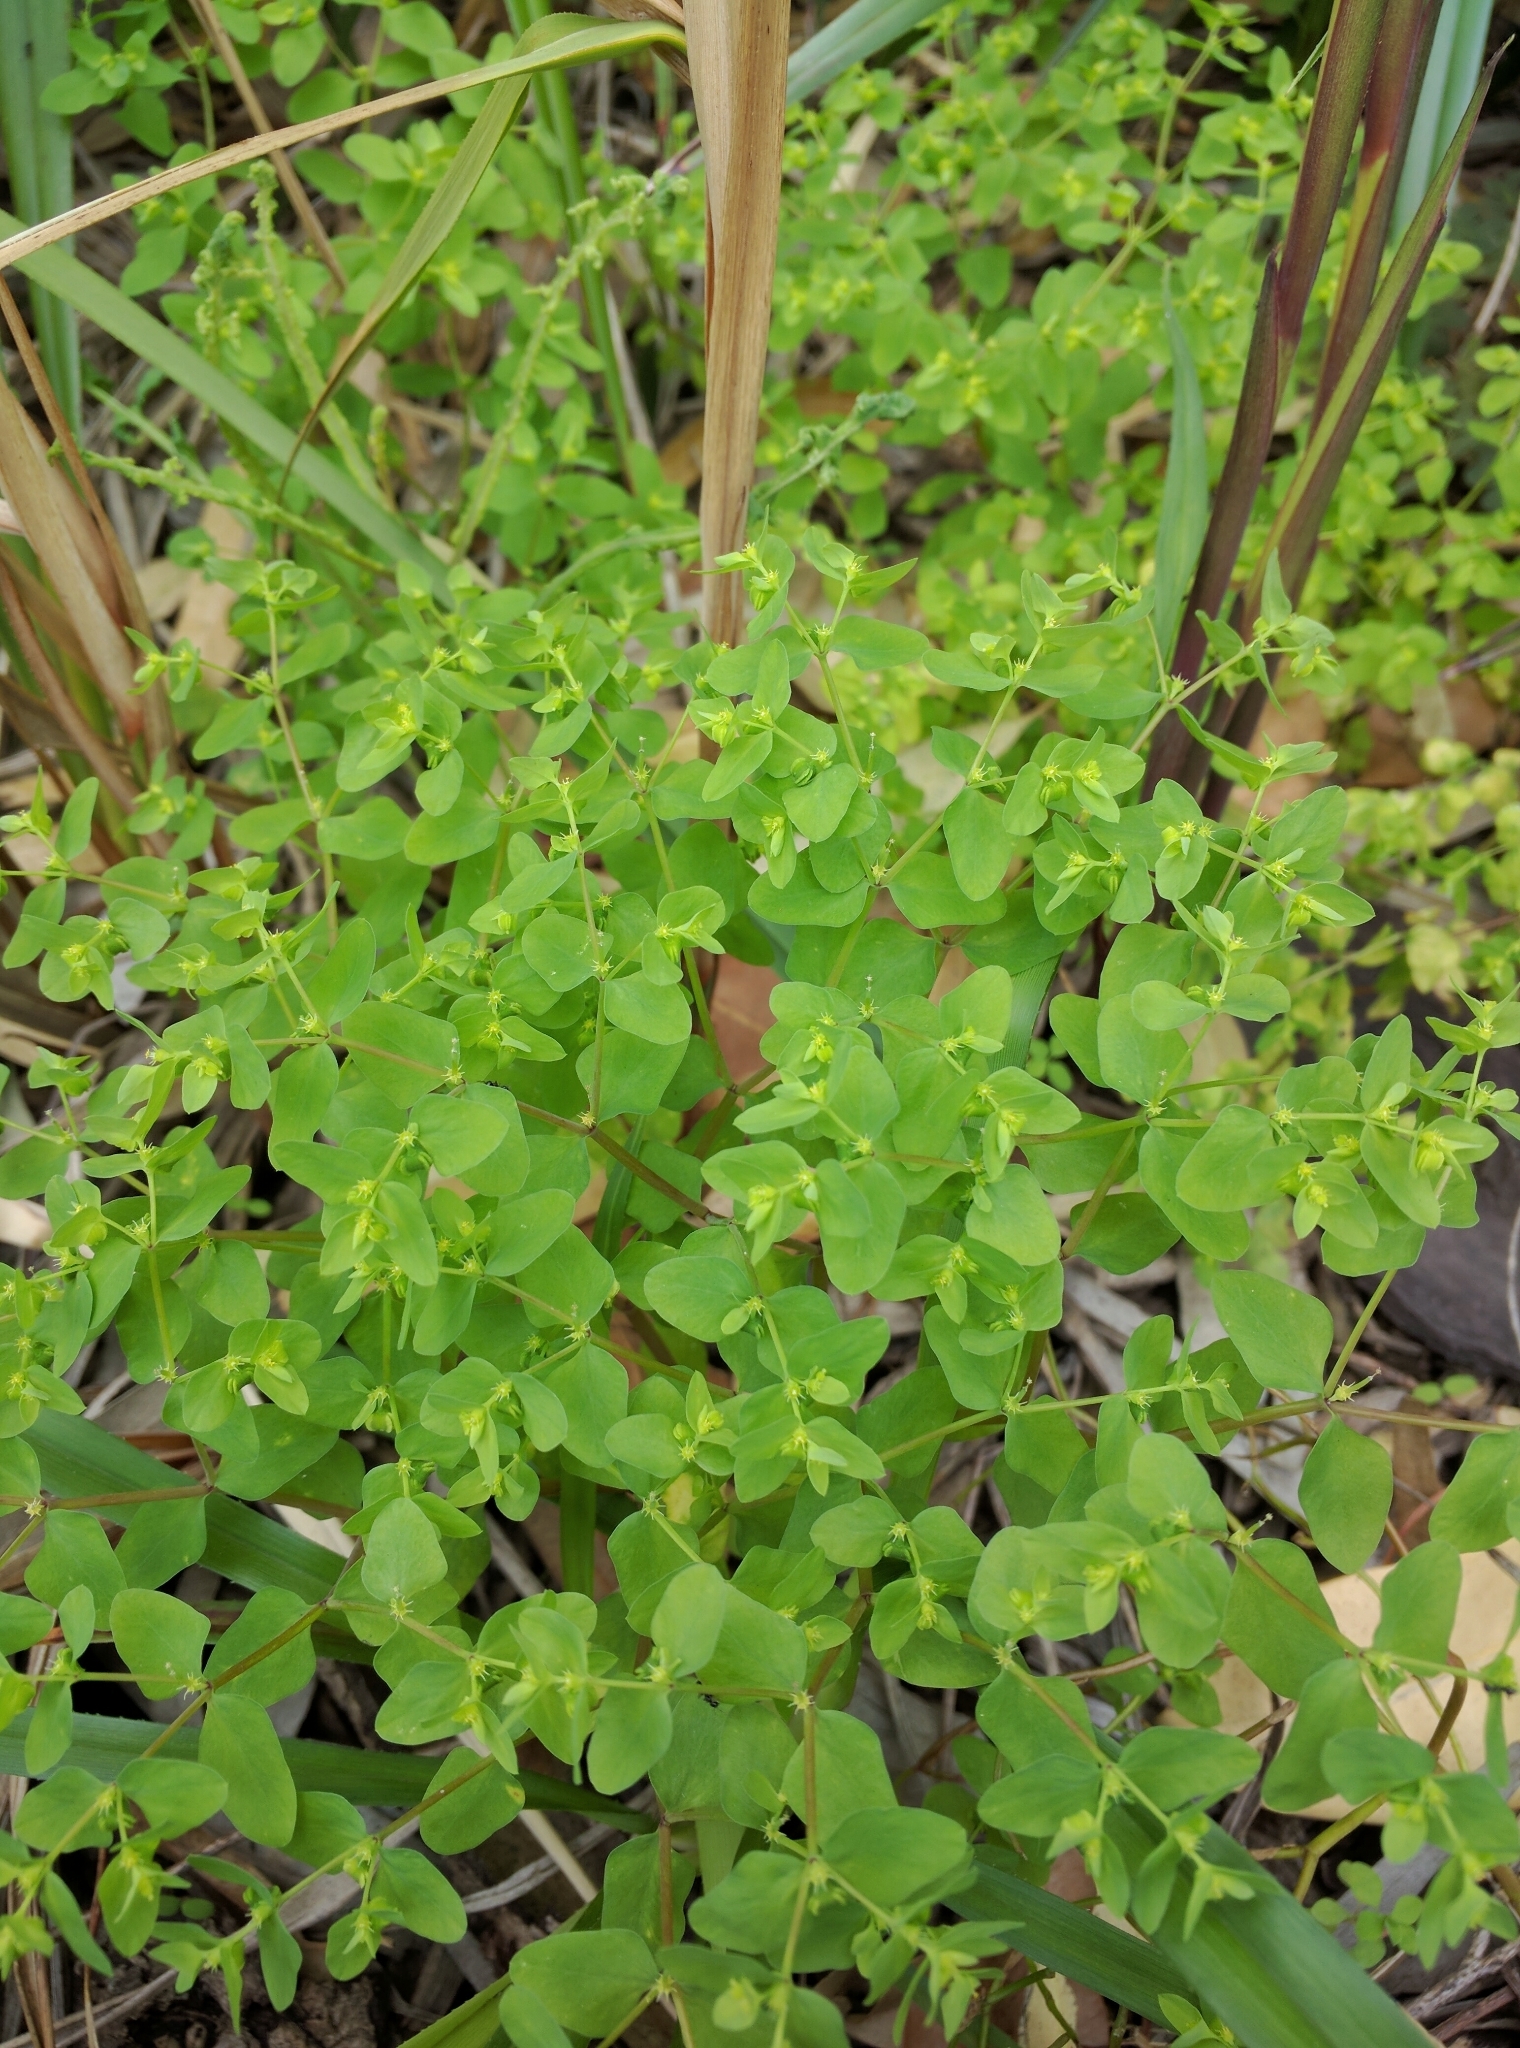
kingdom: Plantae
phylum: Tracheophyta
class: Magnoliopsida
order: Malpighiales
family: Euphorbiaceae
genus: Euphorbia
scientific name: Euphorbia peplus
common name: Petty spurge
